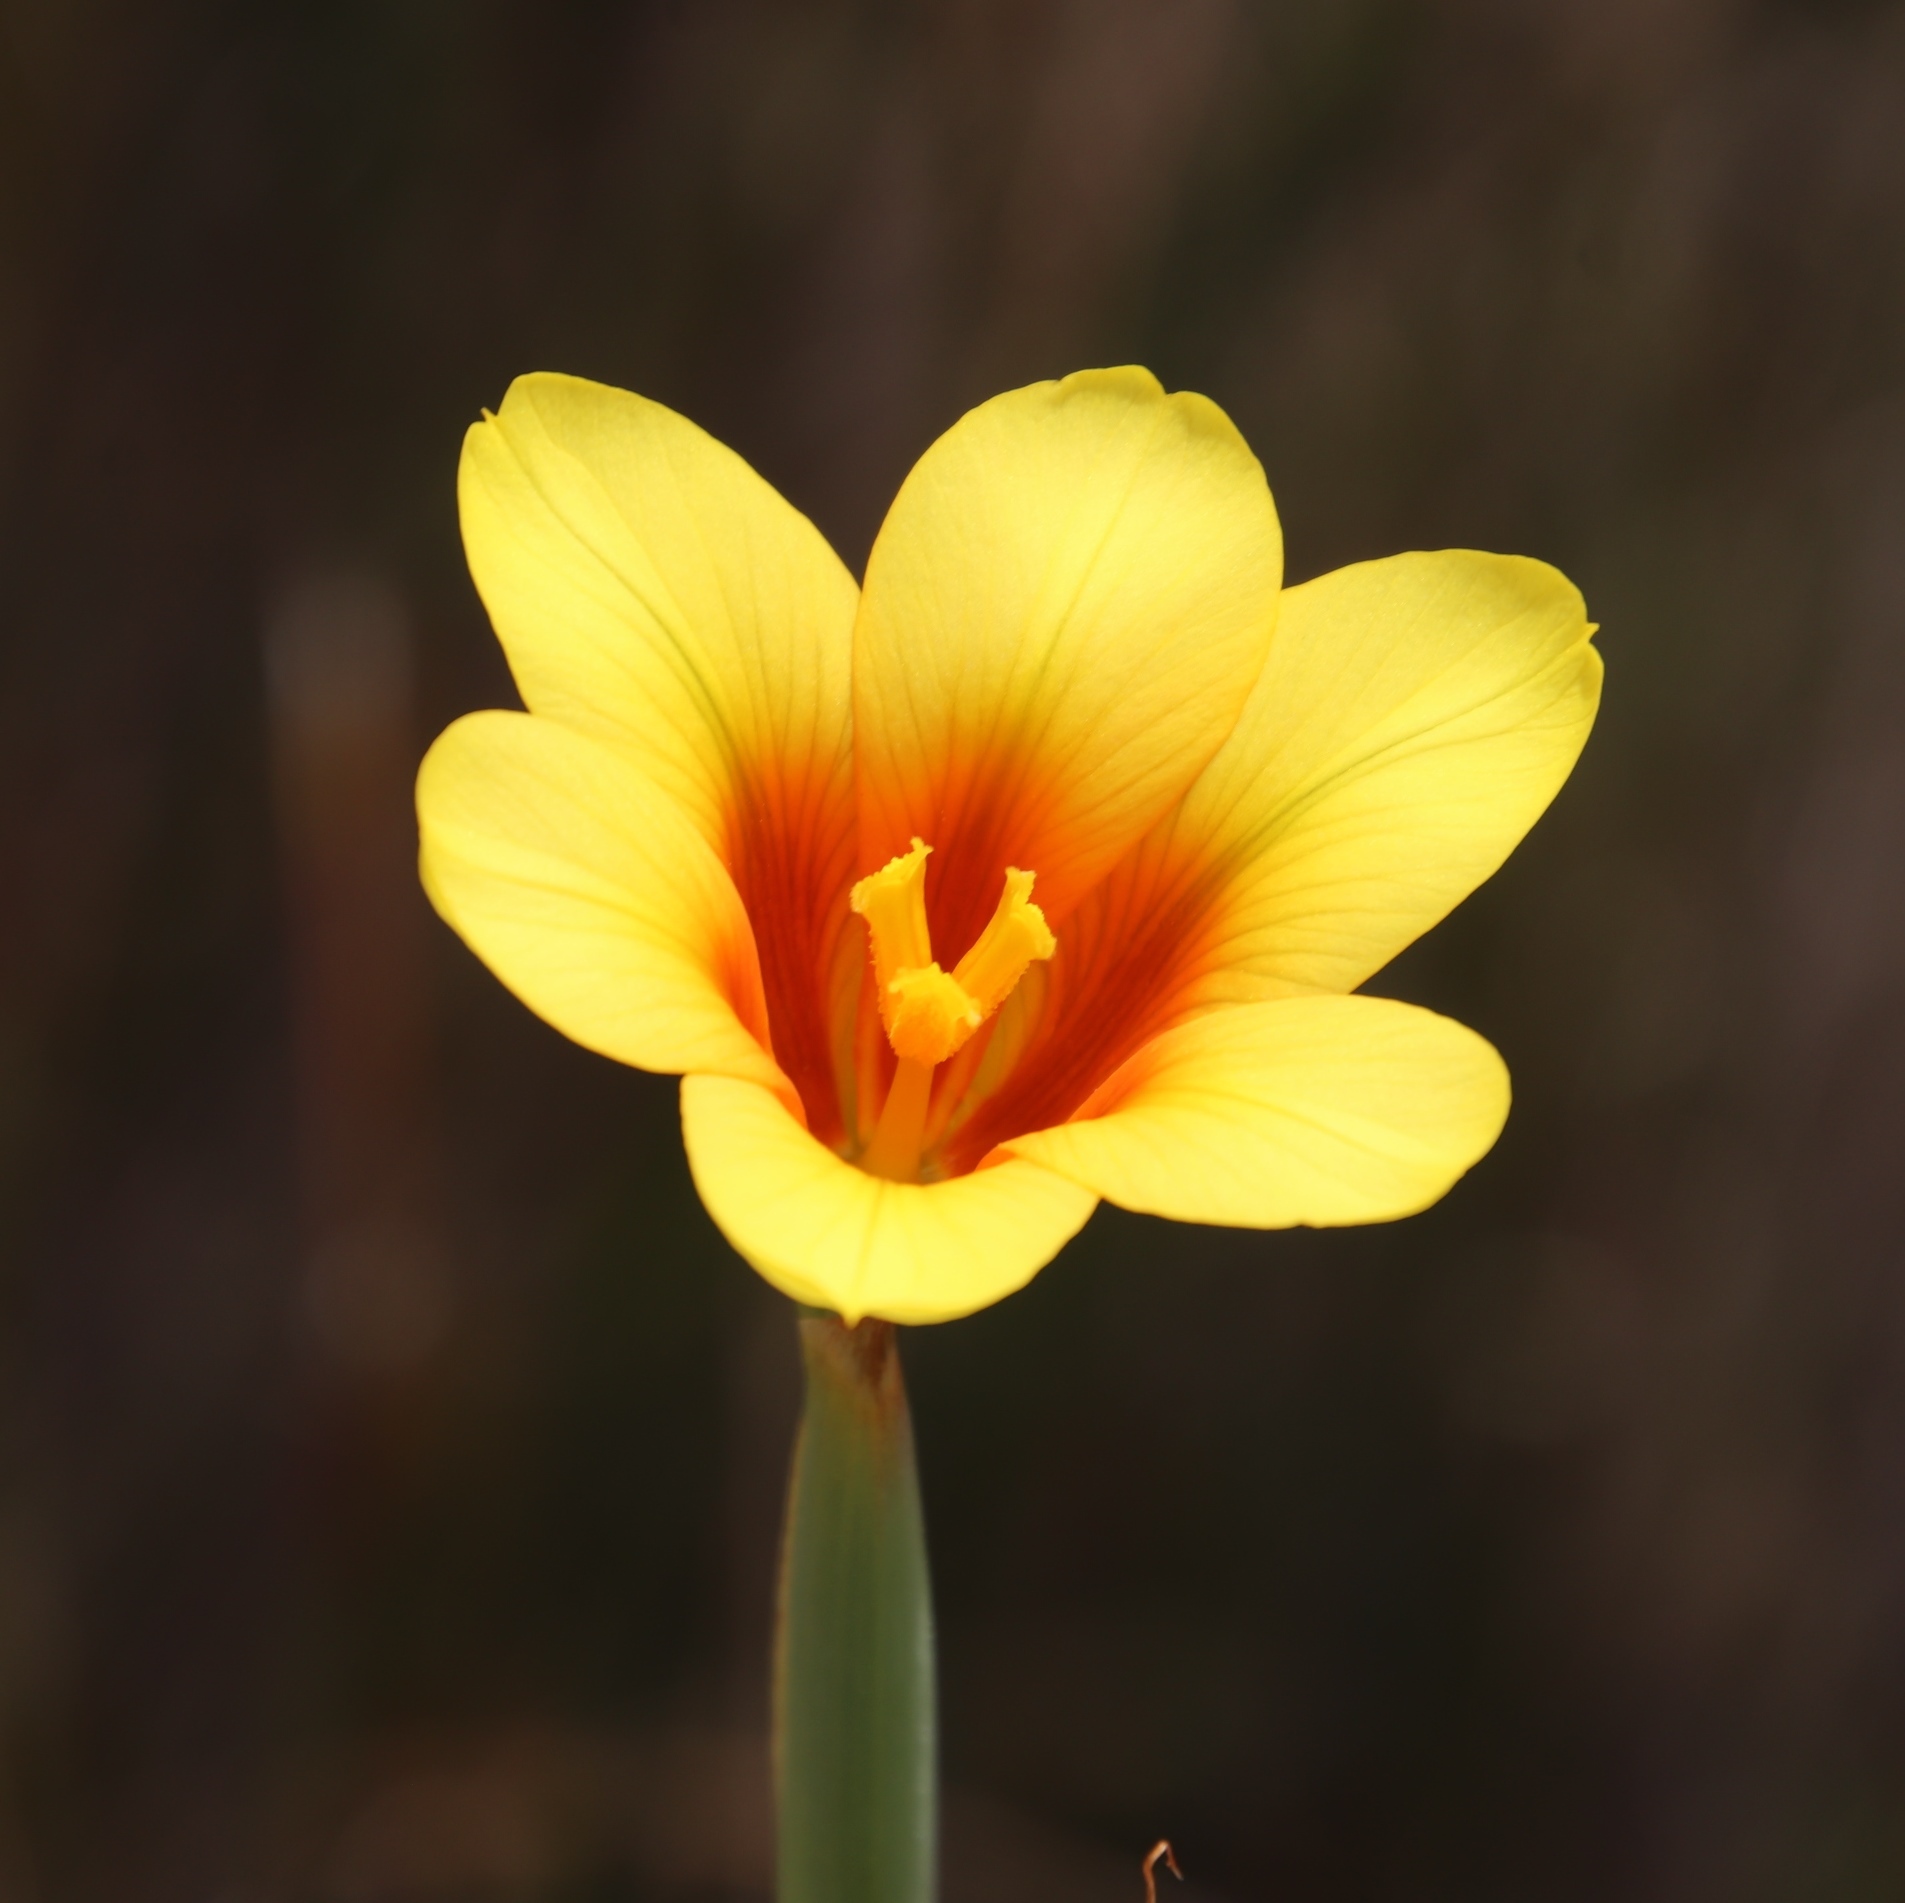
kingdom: Plantae
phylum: Tracheophyta
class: Liliopsida
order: Asparagales
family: Iridaceae
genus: Moraea
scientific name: Moraea ochroleuca
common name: Red tulp
